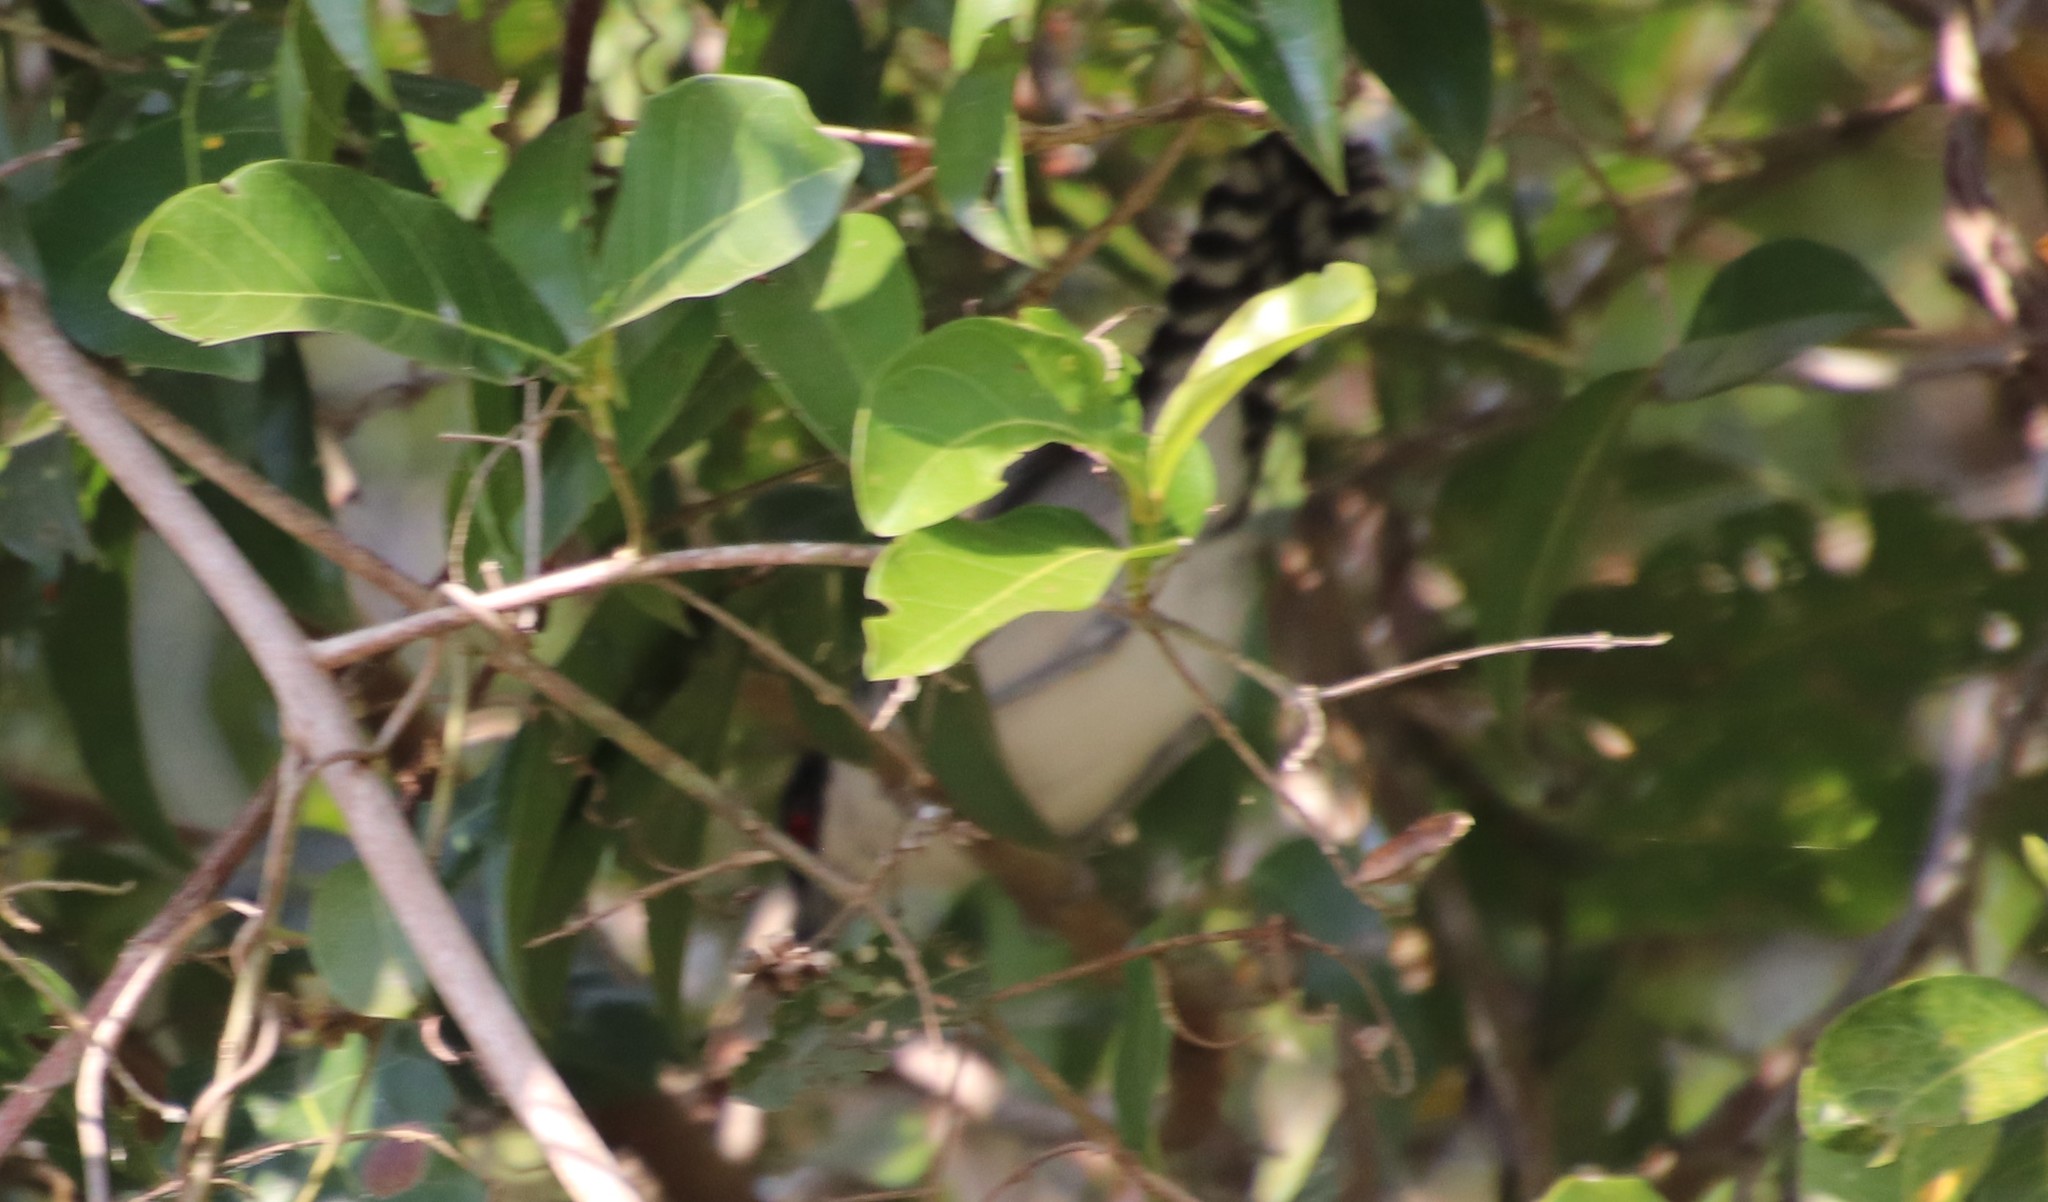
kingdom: Animalia
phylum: Chordata
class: Aves
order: Passeriformes
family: Thamnophilidae
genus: Taraba
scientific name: Taraba major
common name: Great antshrike
